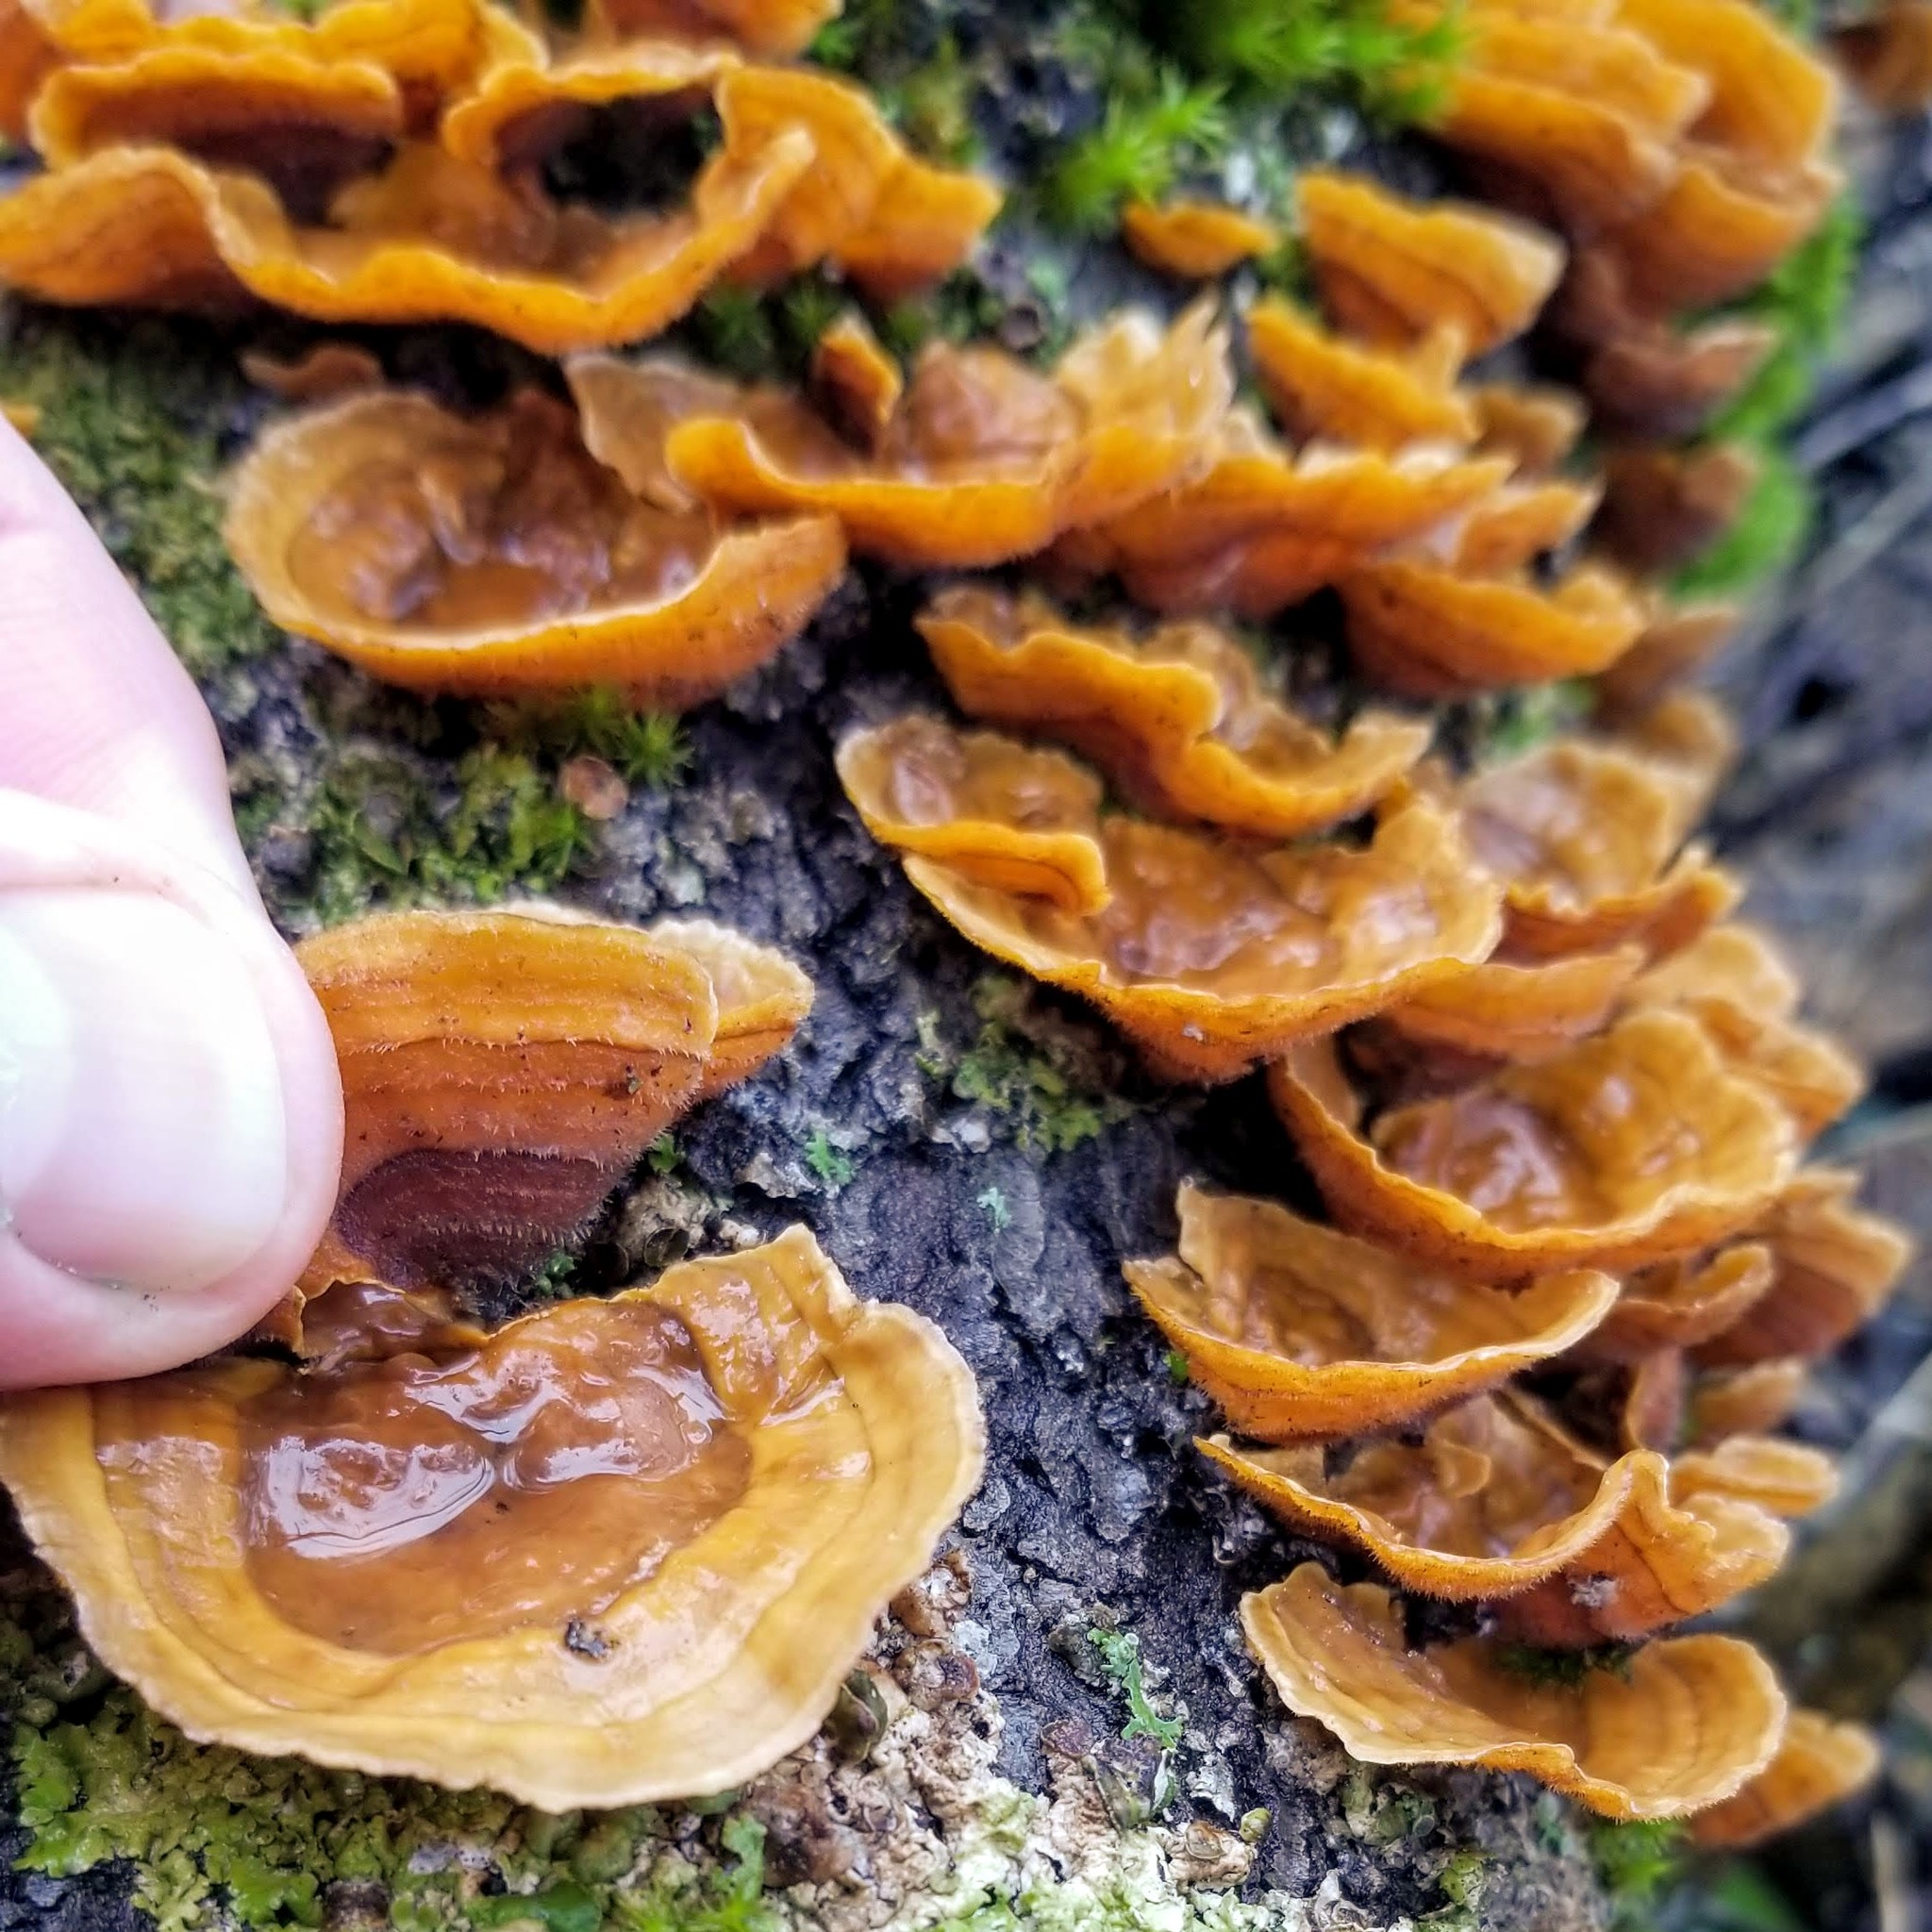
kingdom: Fungi
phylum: Basidiomycota
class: Agaricomycetes
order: Russulales
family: Stereaceae
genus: Stereum
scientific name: Stereum hirsutum
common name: Hairy curtain crust
